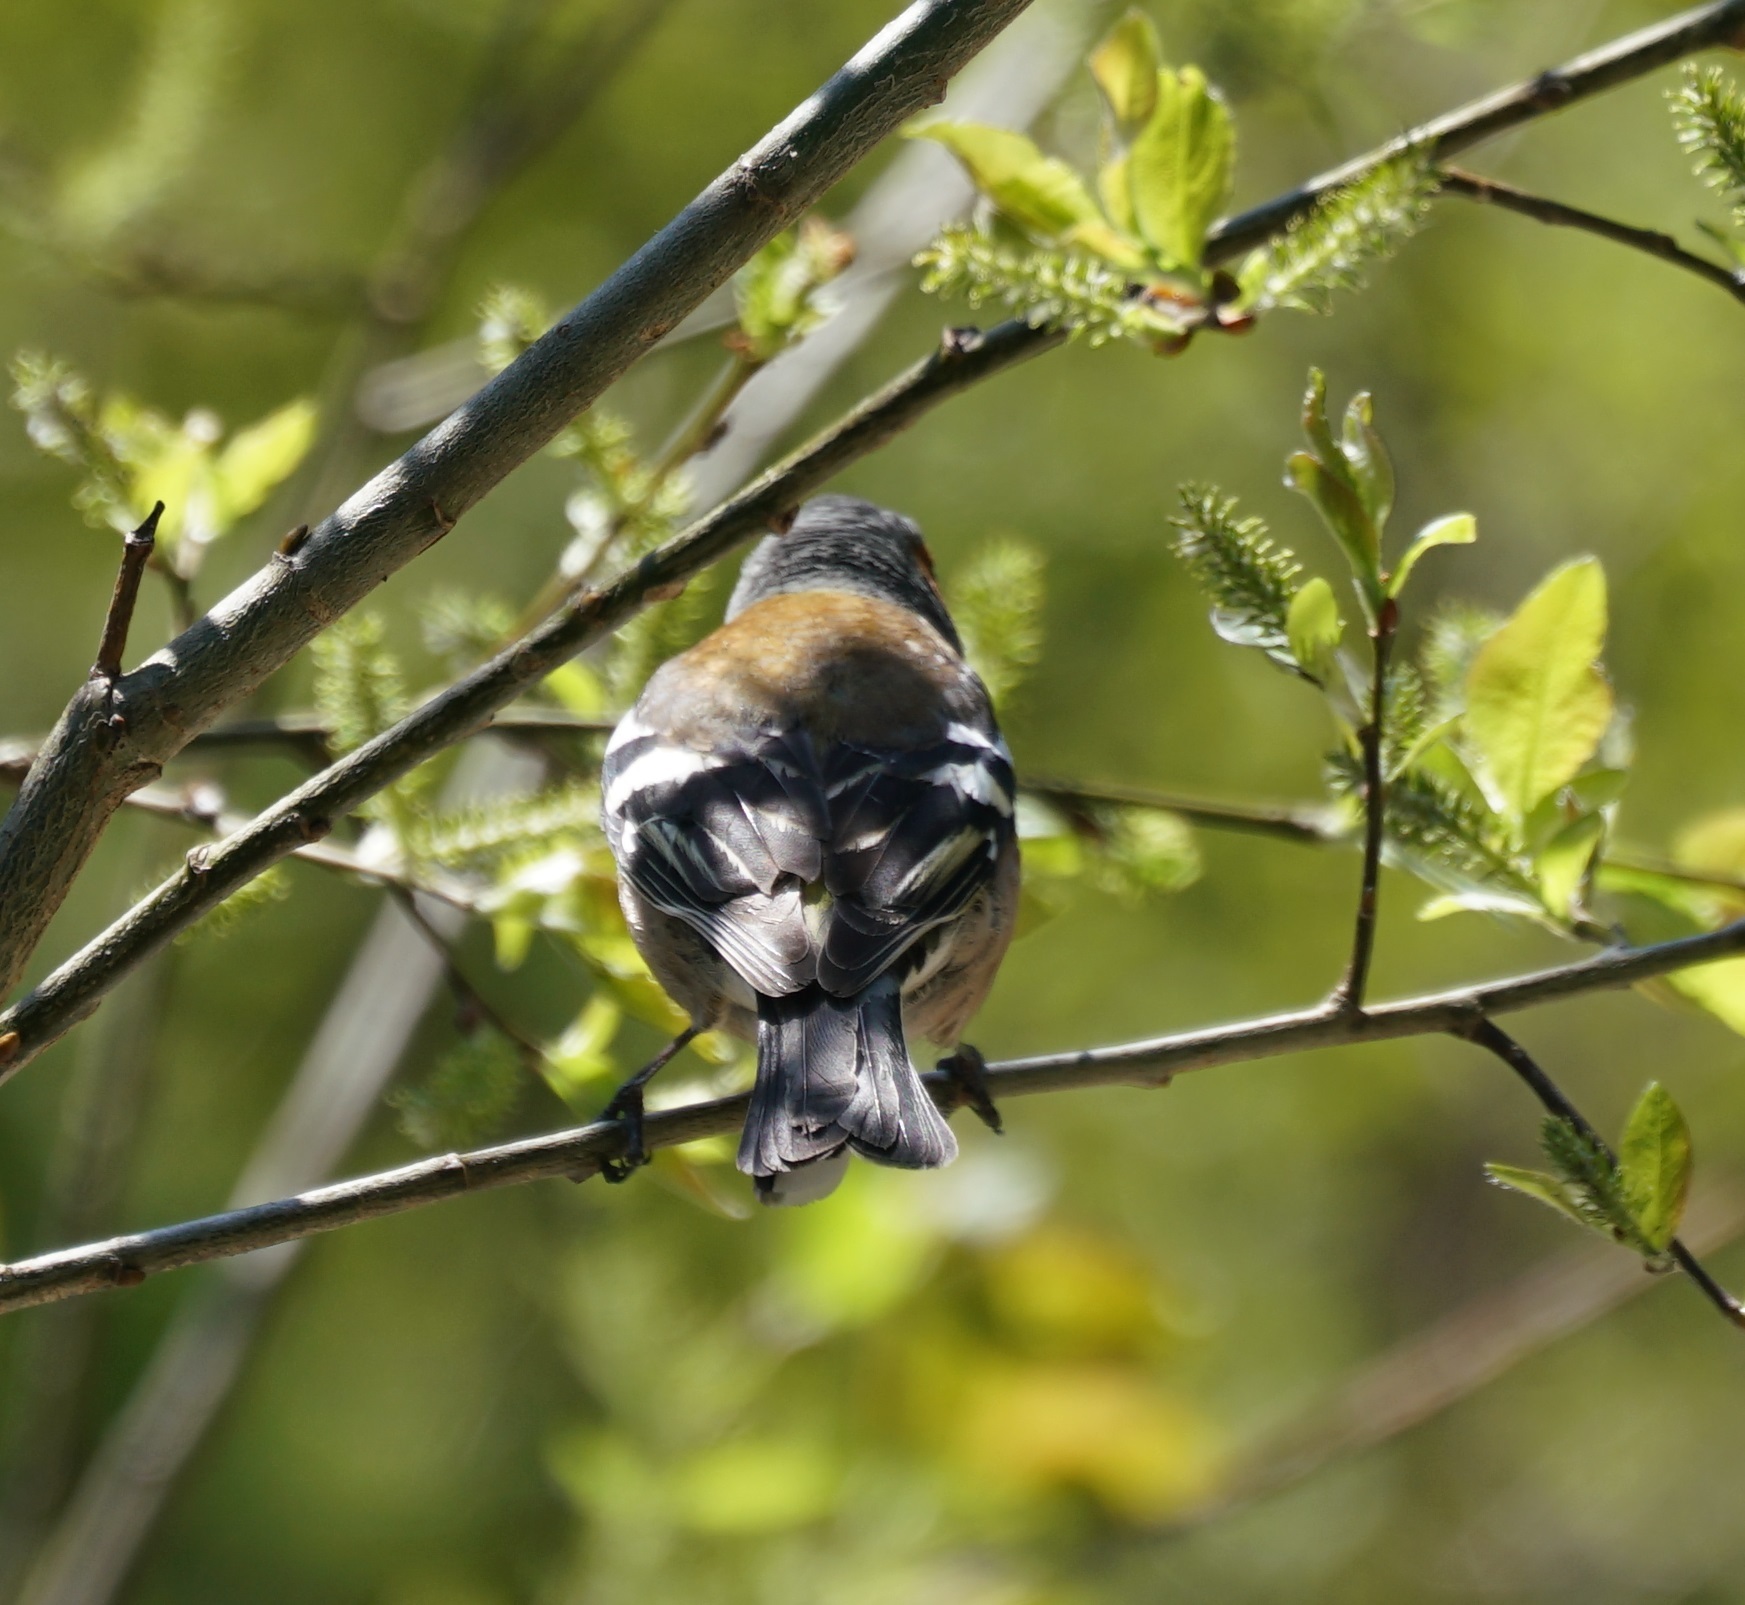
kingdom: Animalia
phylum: Chordata
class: Aves
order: Passeriformes
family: Fringillidae
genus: Fringilla
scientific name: Fringilla coelebs
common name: Common chaffinch
